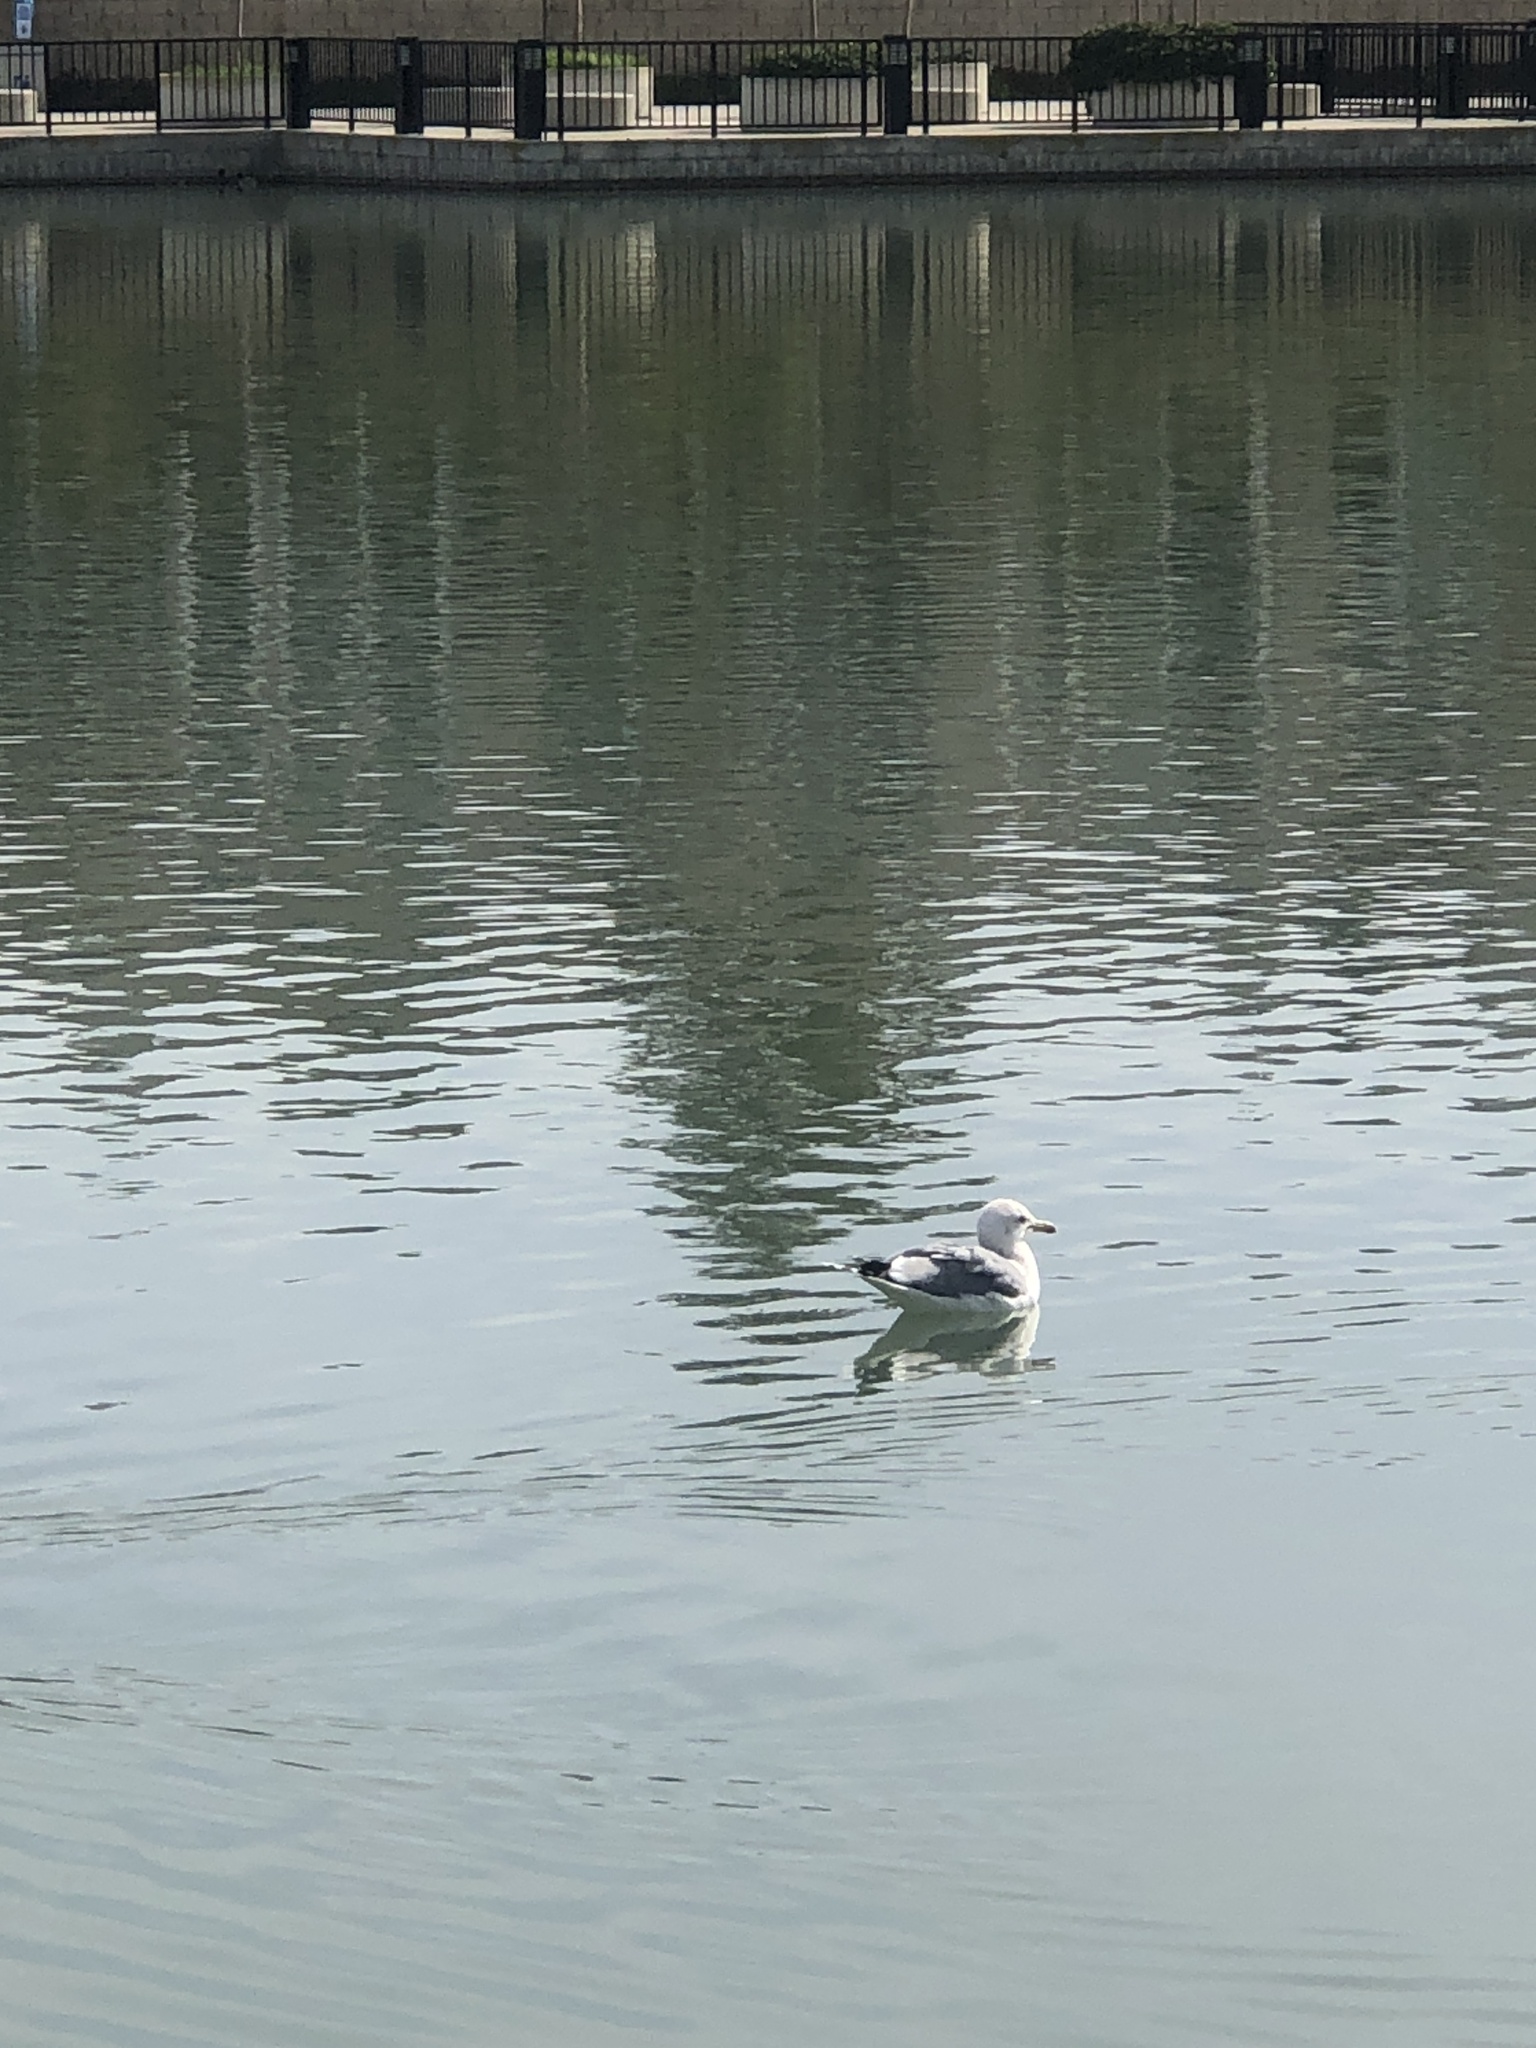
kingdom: Animalia
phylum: Chordata
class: Aves
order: Charadriiformes
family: Laridae
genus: Larus
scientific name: Larus californicus
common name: California gull
